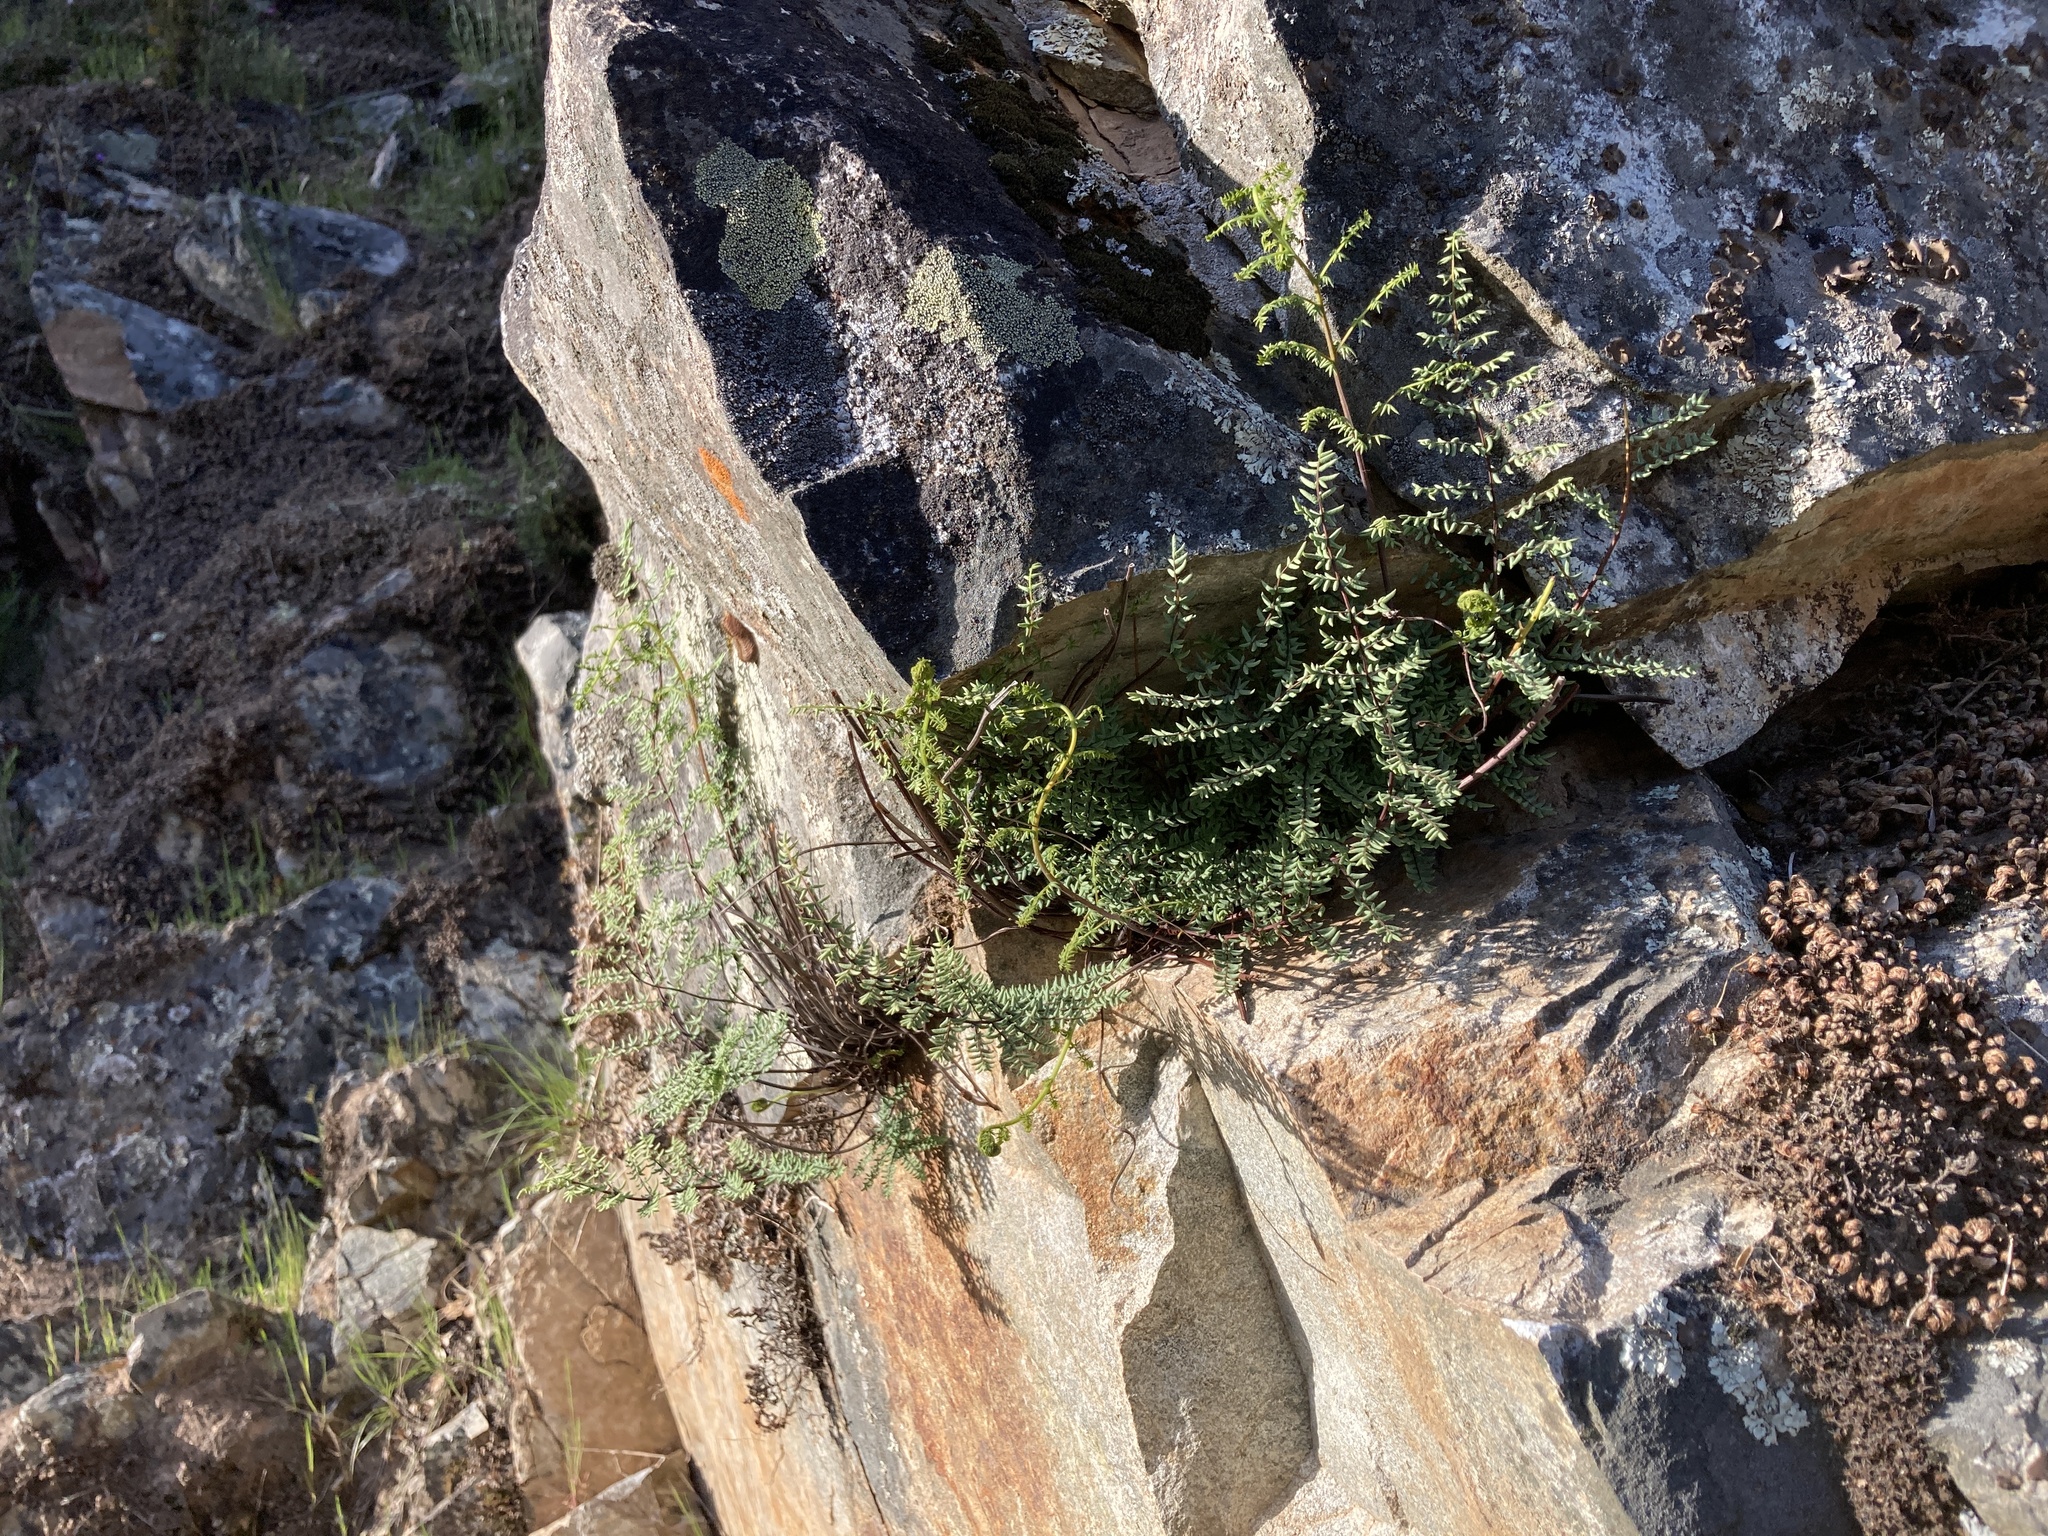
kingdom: Plantae
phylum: Tracheophyta
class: Polypodiopsida
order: Polypodiales
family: Pteridaceae
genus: Pellaea
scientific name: Pellaea mucronata
